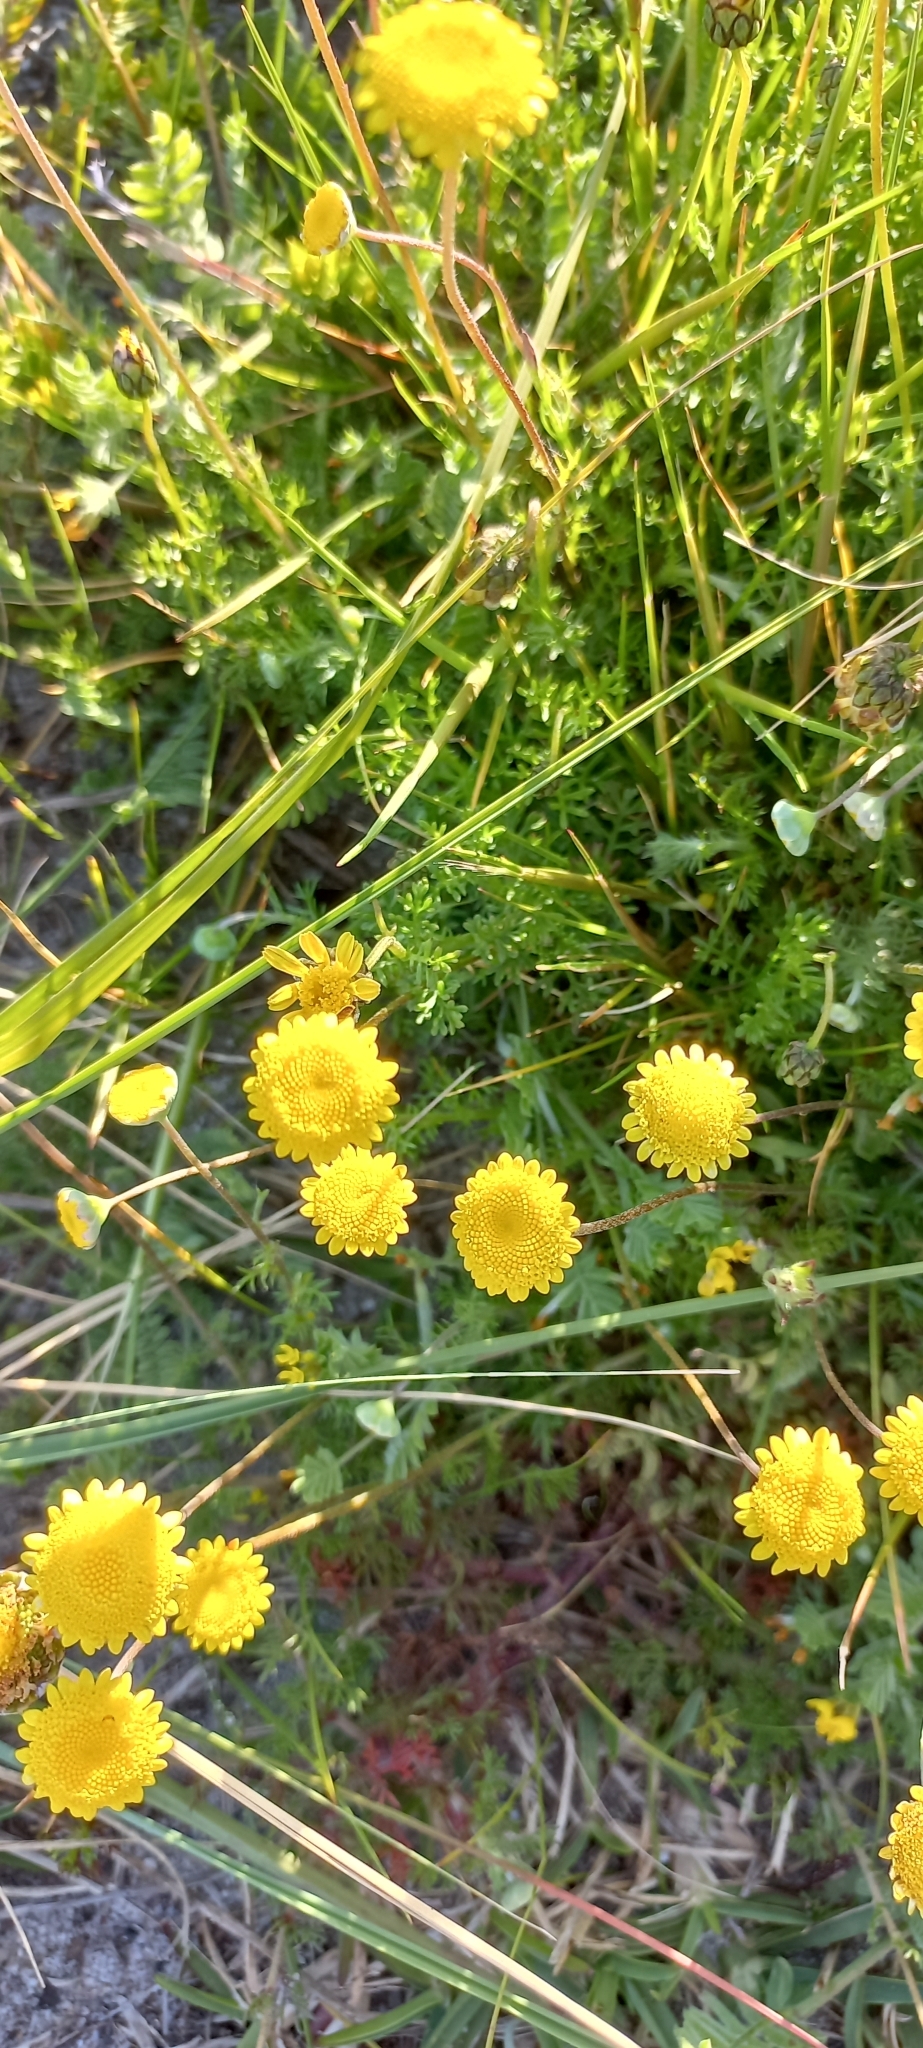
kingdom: Plantae
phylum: Tracheophyta
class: Magnoliopsida
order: Asterales
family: Asteraceae
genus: Cotula
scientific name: Cotula pruinosa
